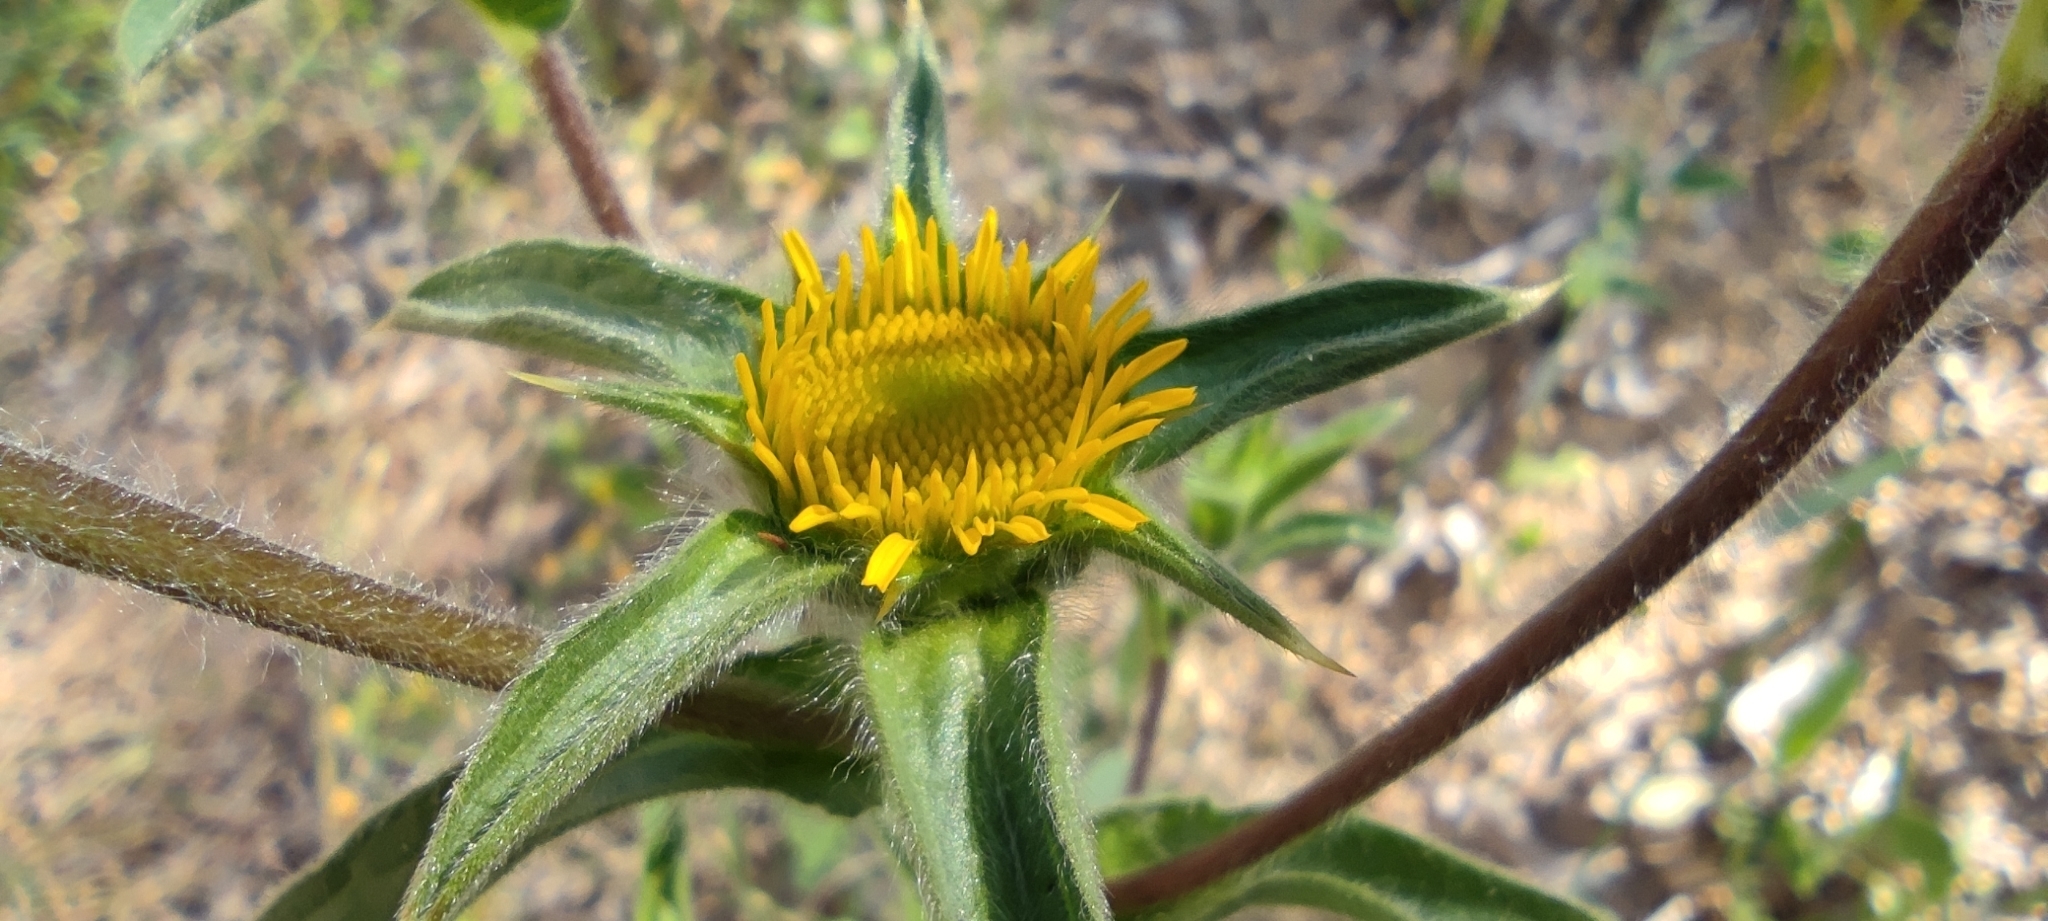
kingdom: Plantae
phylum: Tracheophyta
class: Magnoliopsida
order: Asterales
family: Asteraceae
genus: Pallenis
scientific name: Pallenis spinosa
